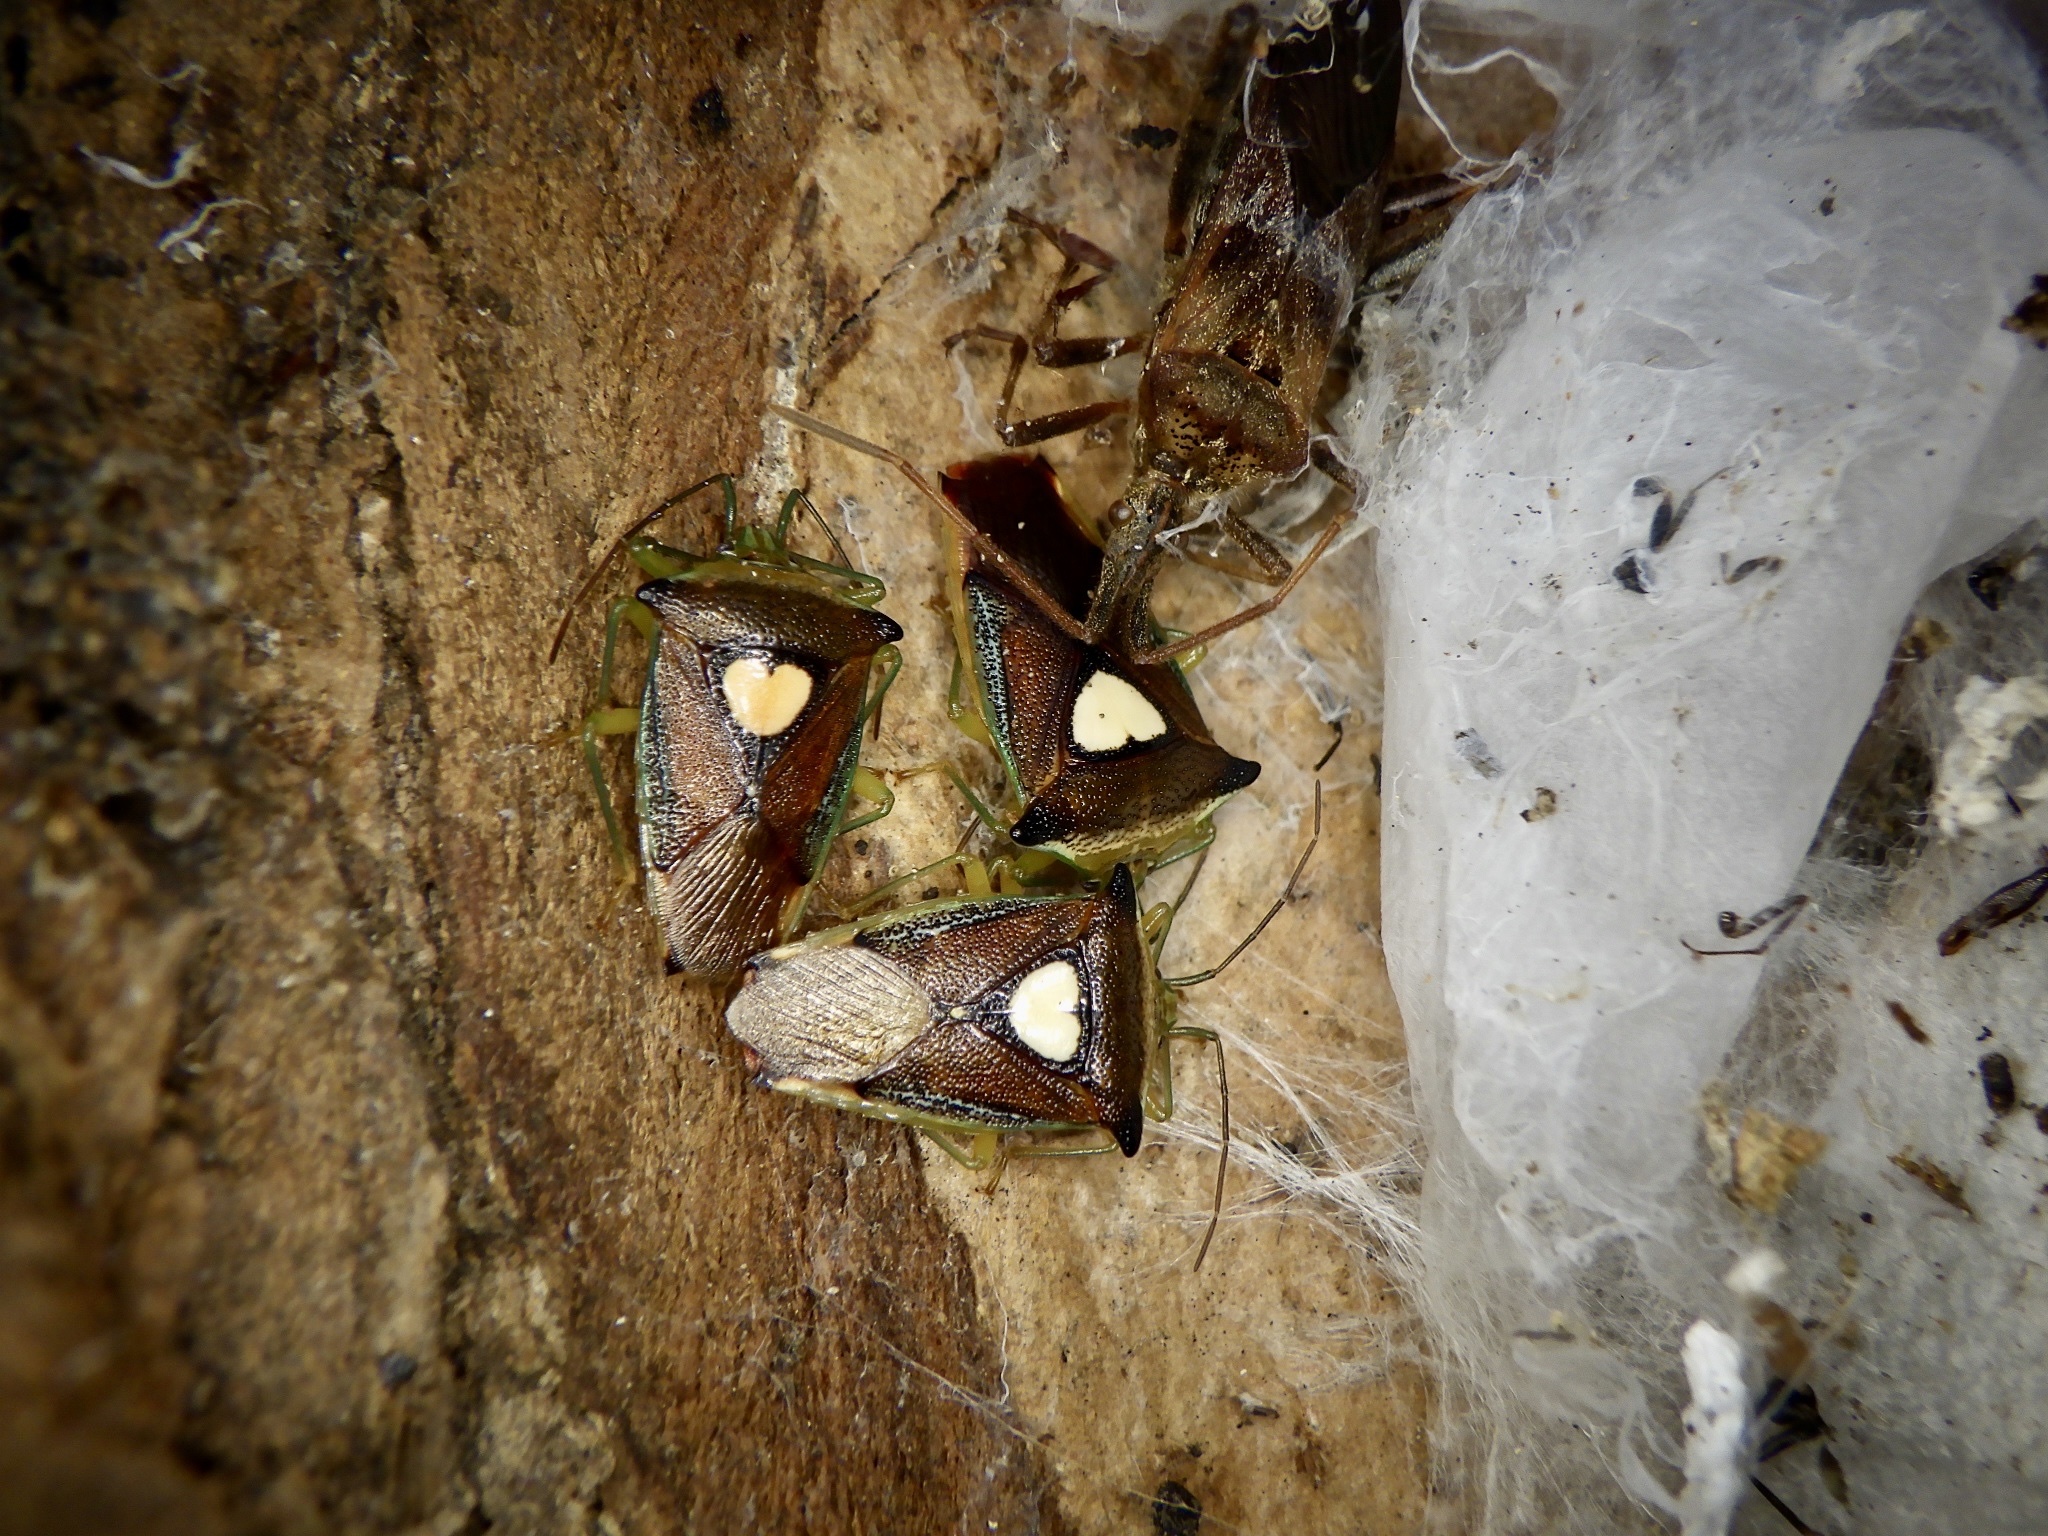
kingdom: Animalia
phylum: Arthropoda
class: Insecta
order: Hemiptera
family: Acanthosomatidae
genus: Sastragala
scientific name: Sastragala esakii
